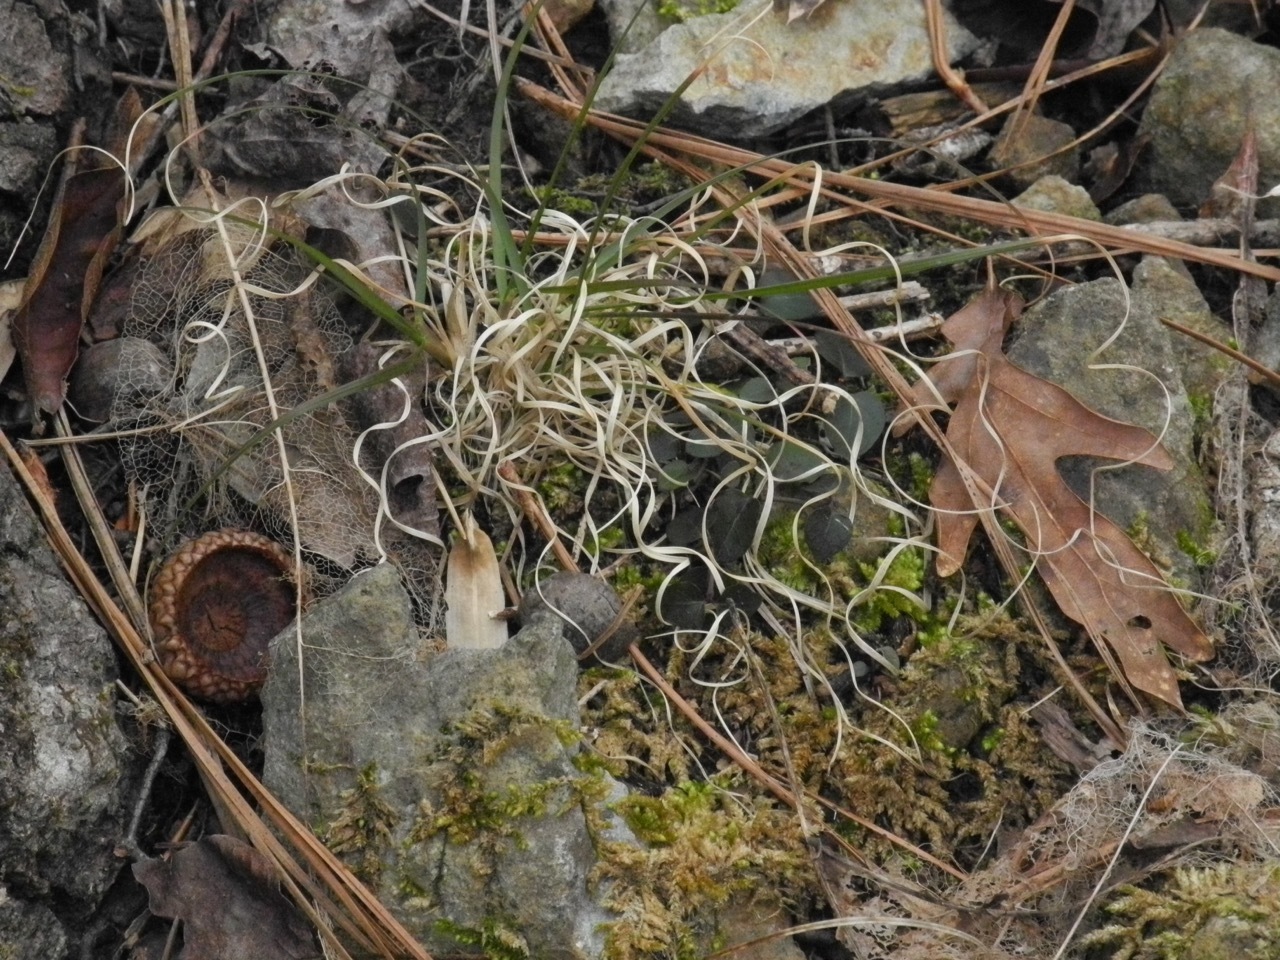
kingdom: Plantae
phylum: Tracheophyta
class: Liliopsida
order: Poales
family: Poaceae
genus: Danthonia
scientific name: Danthonia spicata
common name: Common wild oatgrass
